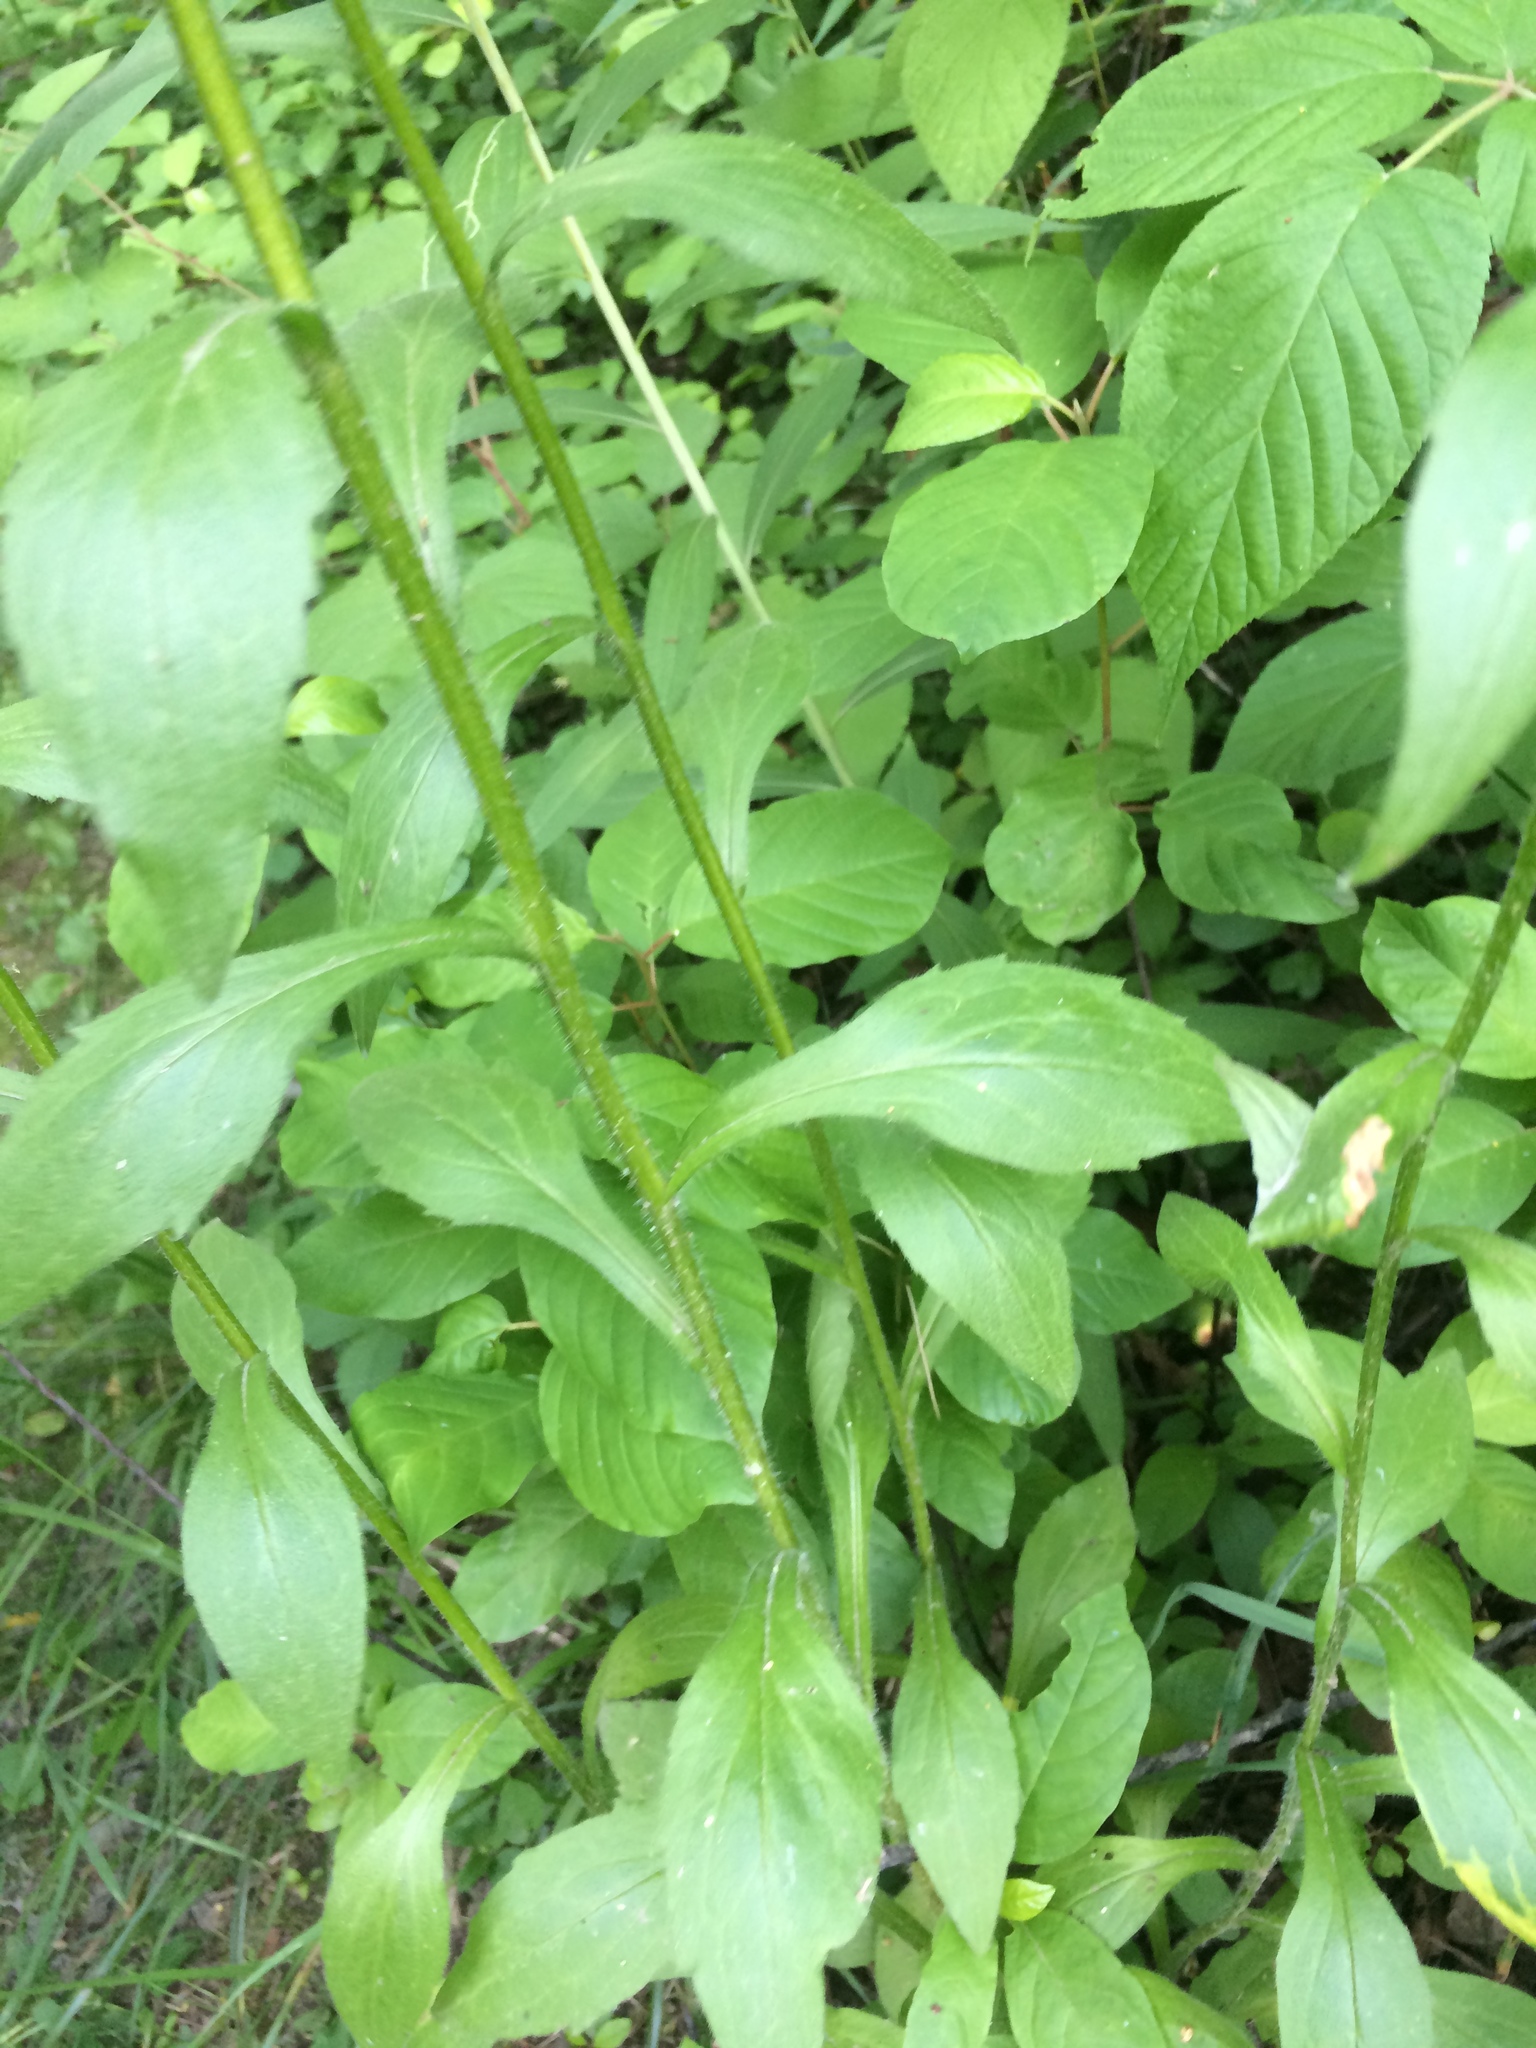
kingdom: Plantae
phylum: Tracheophyta
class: Magnoliopsida
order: Asterales
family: Asteraceae
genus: Erigeron
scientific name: Erigeron annuus
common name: Tall fleabane
